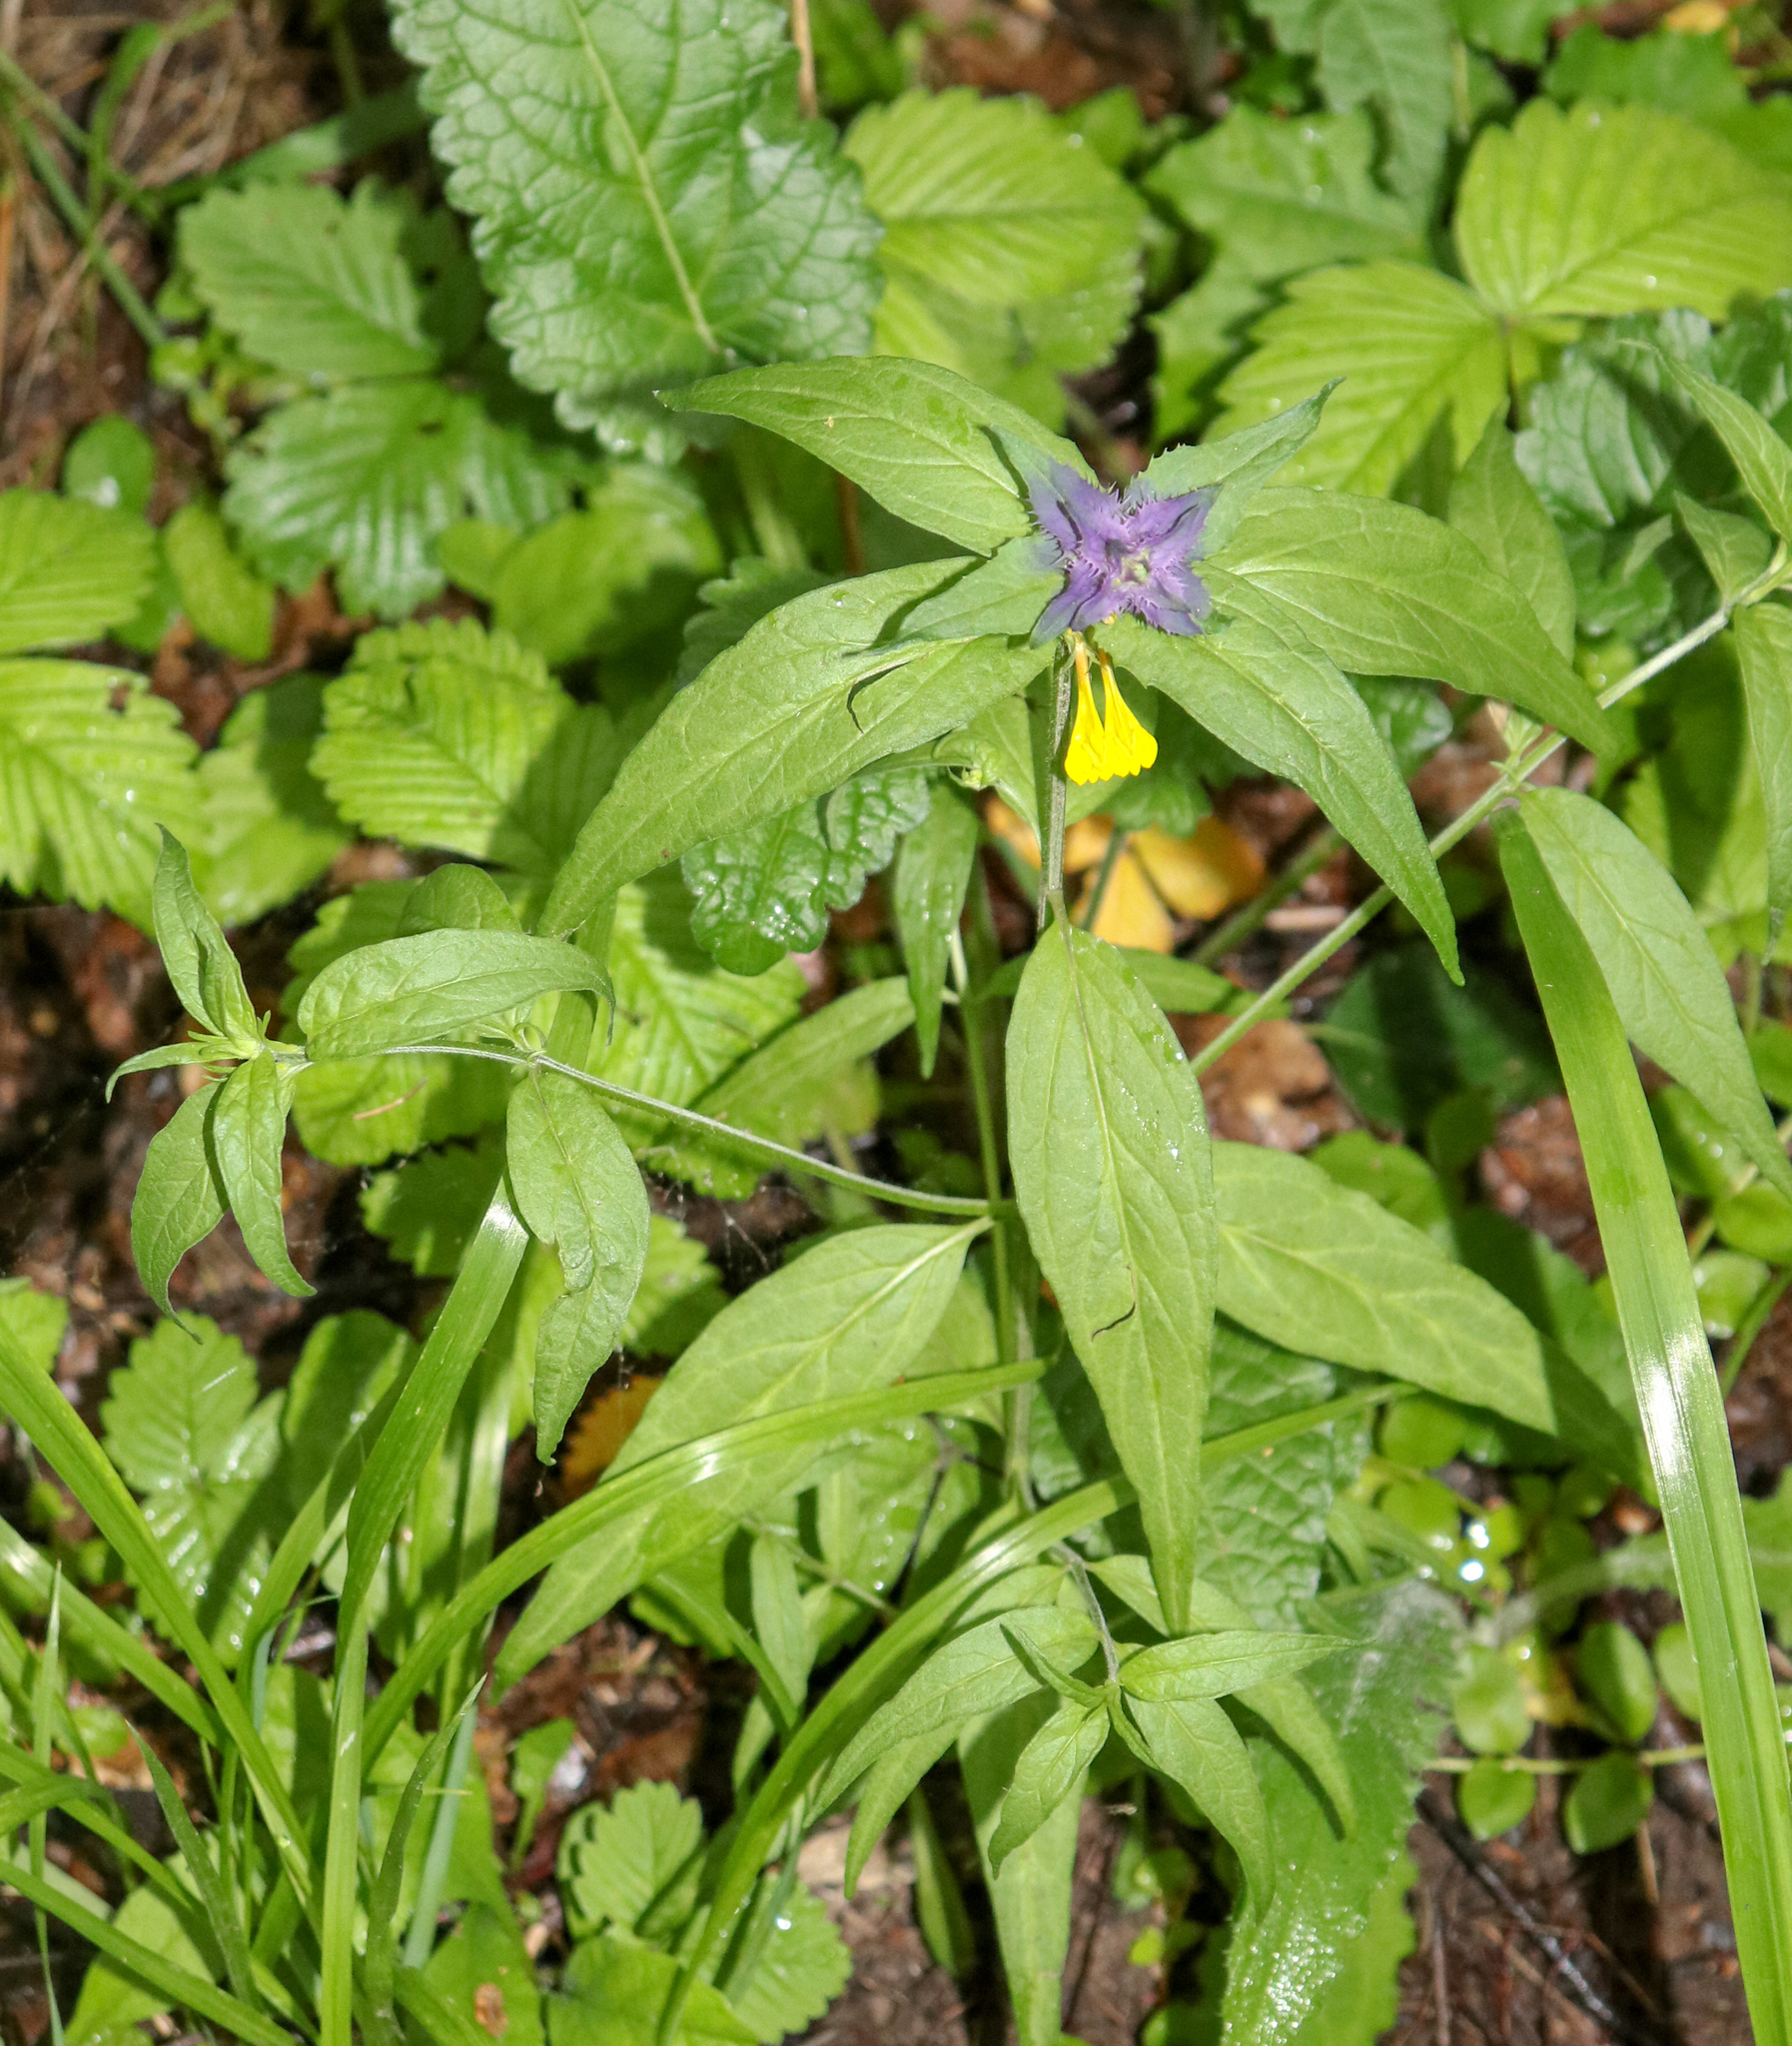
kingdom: Plantae
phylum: Tracheophyta
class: Magnoliopsida
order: Lamiales
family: Orobanchaceae
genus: Melampyrum
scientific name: Melampyrum nemorosum
